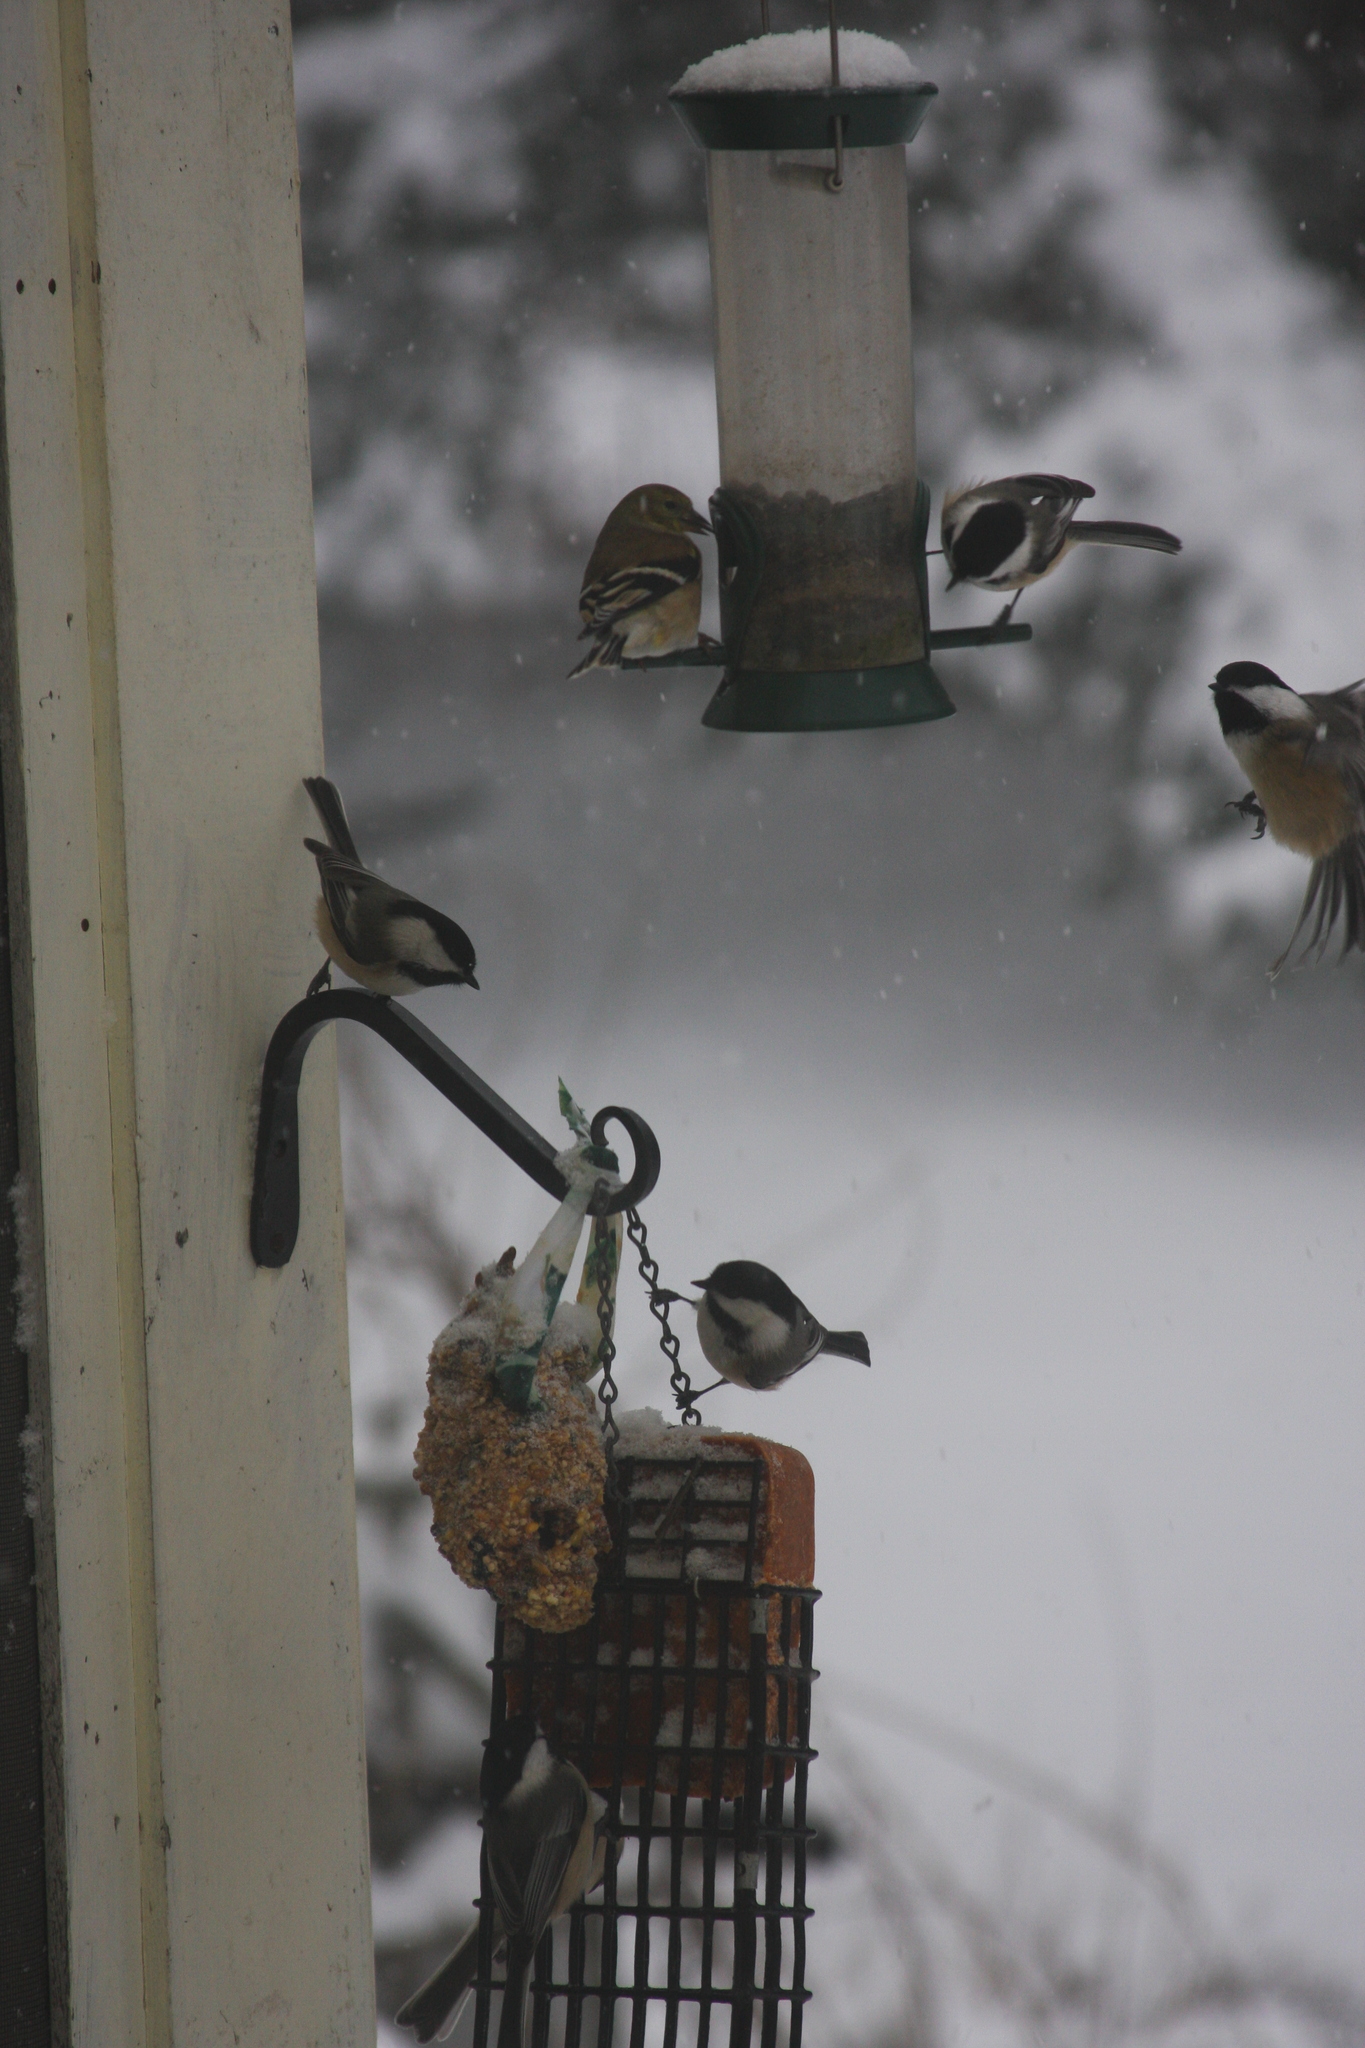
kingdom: Animalia
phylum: Chordata
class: Aves
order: Passeriformes
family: Fringillidae
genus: Spinus
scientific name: Spinus tristis
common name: American goldfinch
